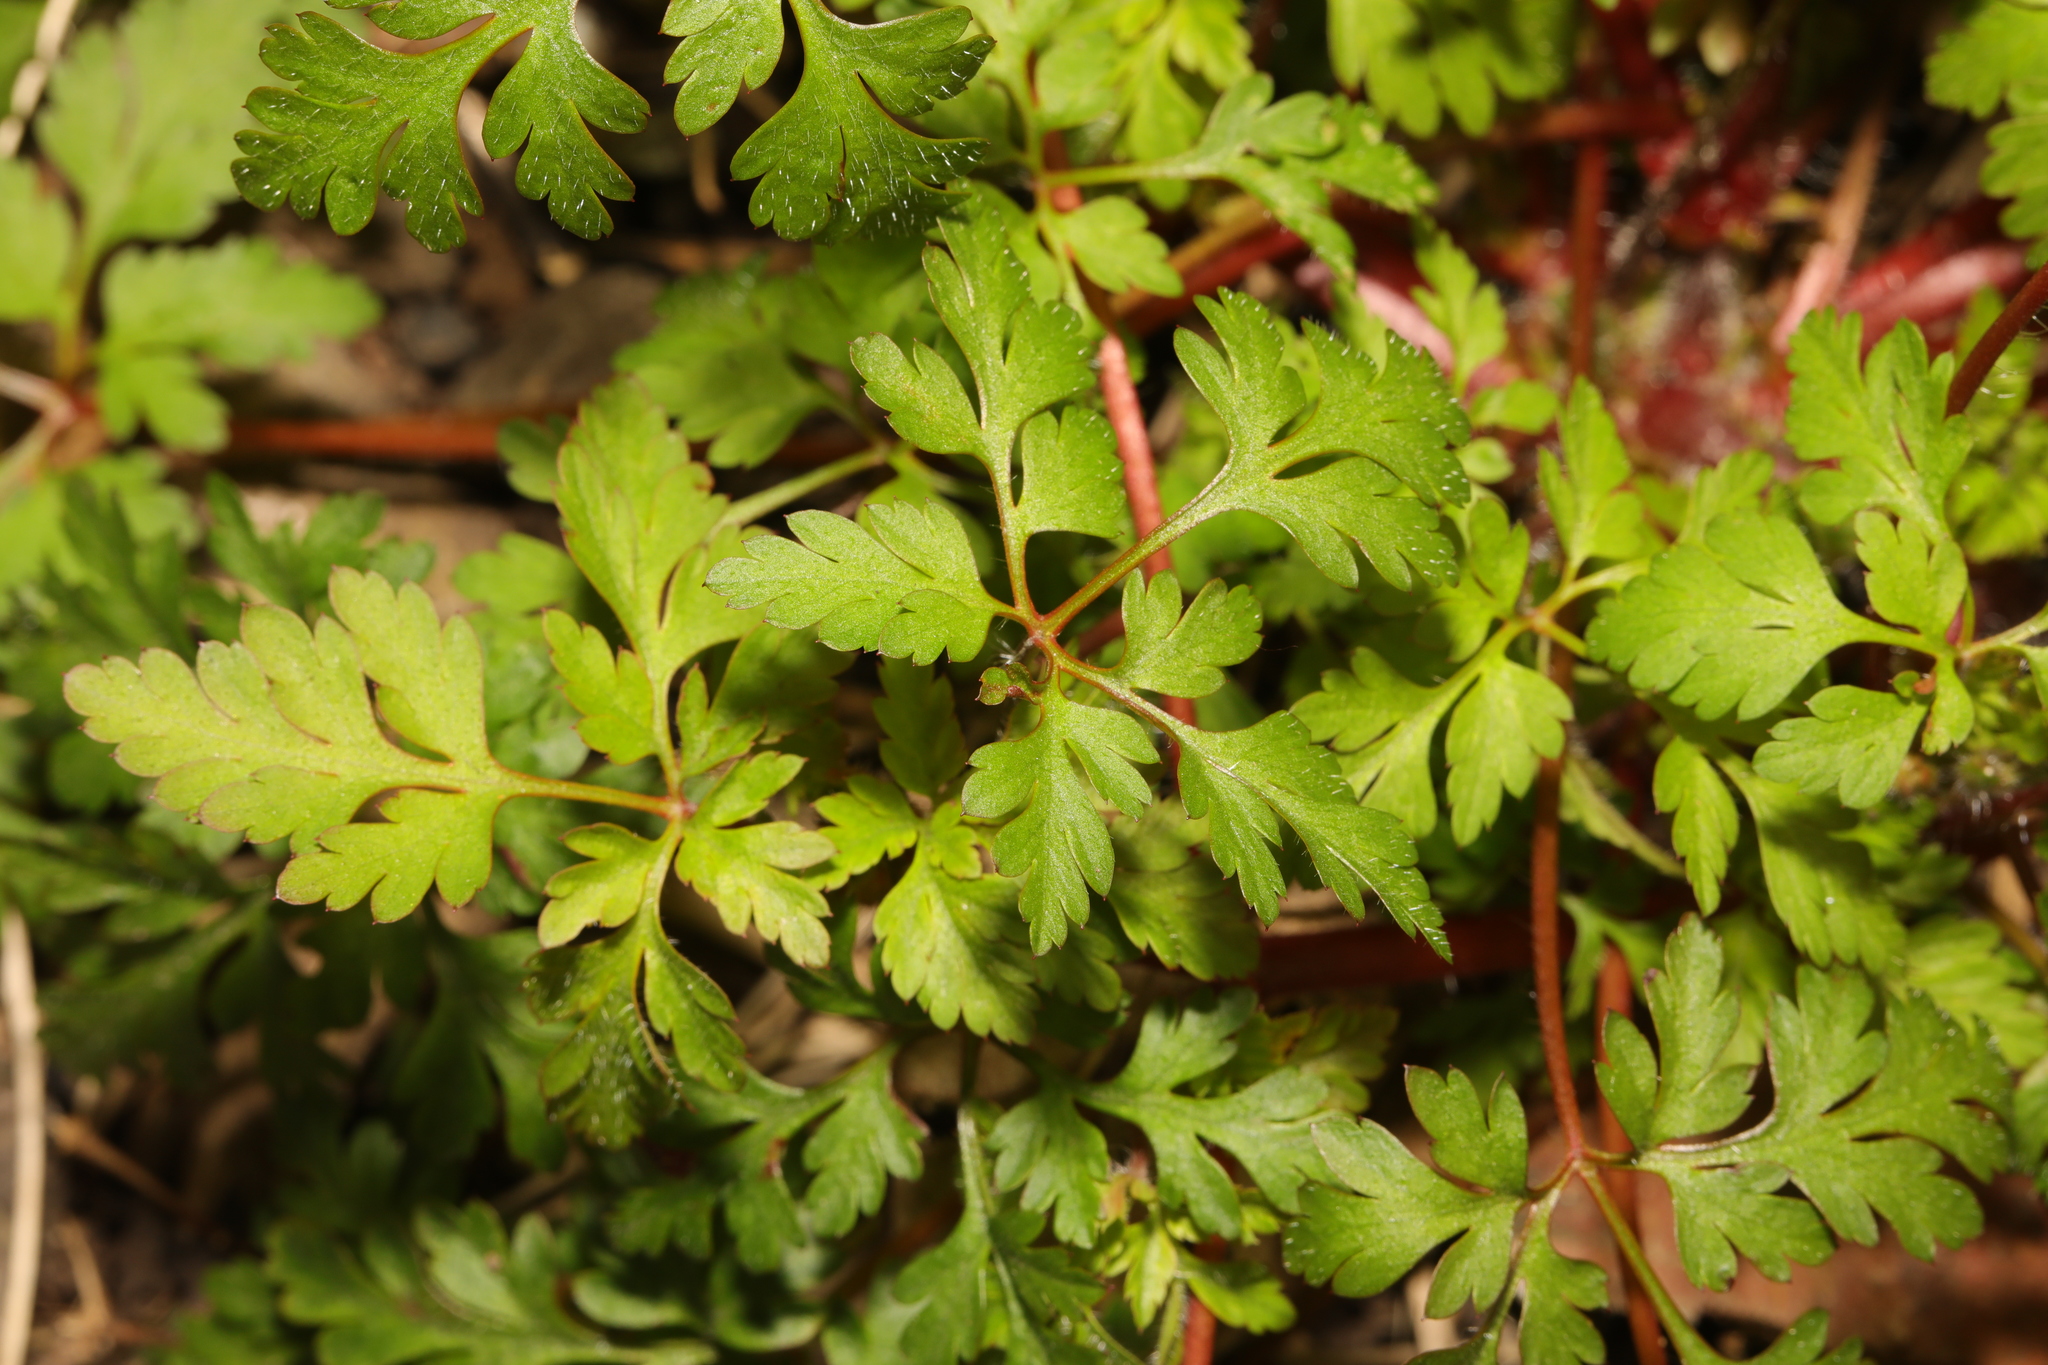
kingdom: Plantae
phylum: Tracheophyta
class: Magnoliopsida
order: Geraniales
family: Geraniaceae
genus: Geranium
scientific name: Geranium robertianum
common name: Herb-robert
